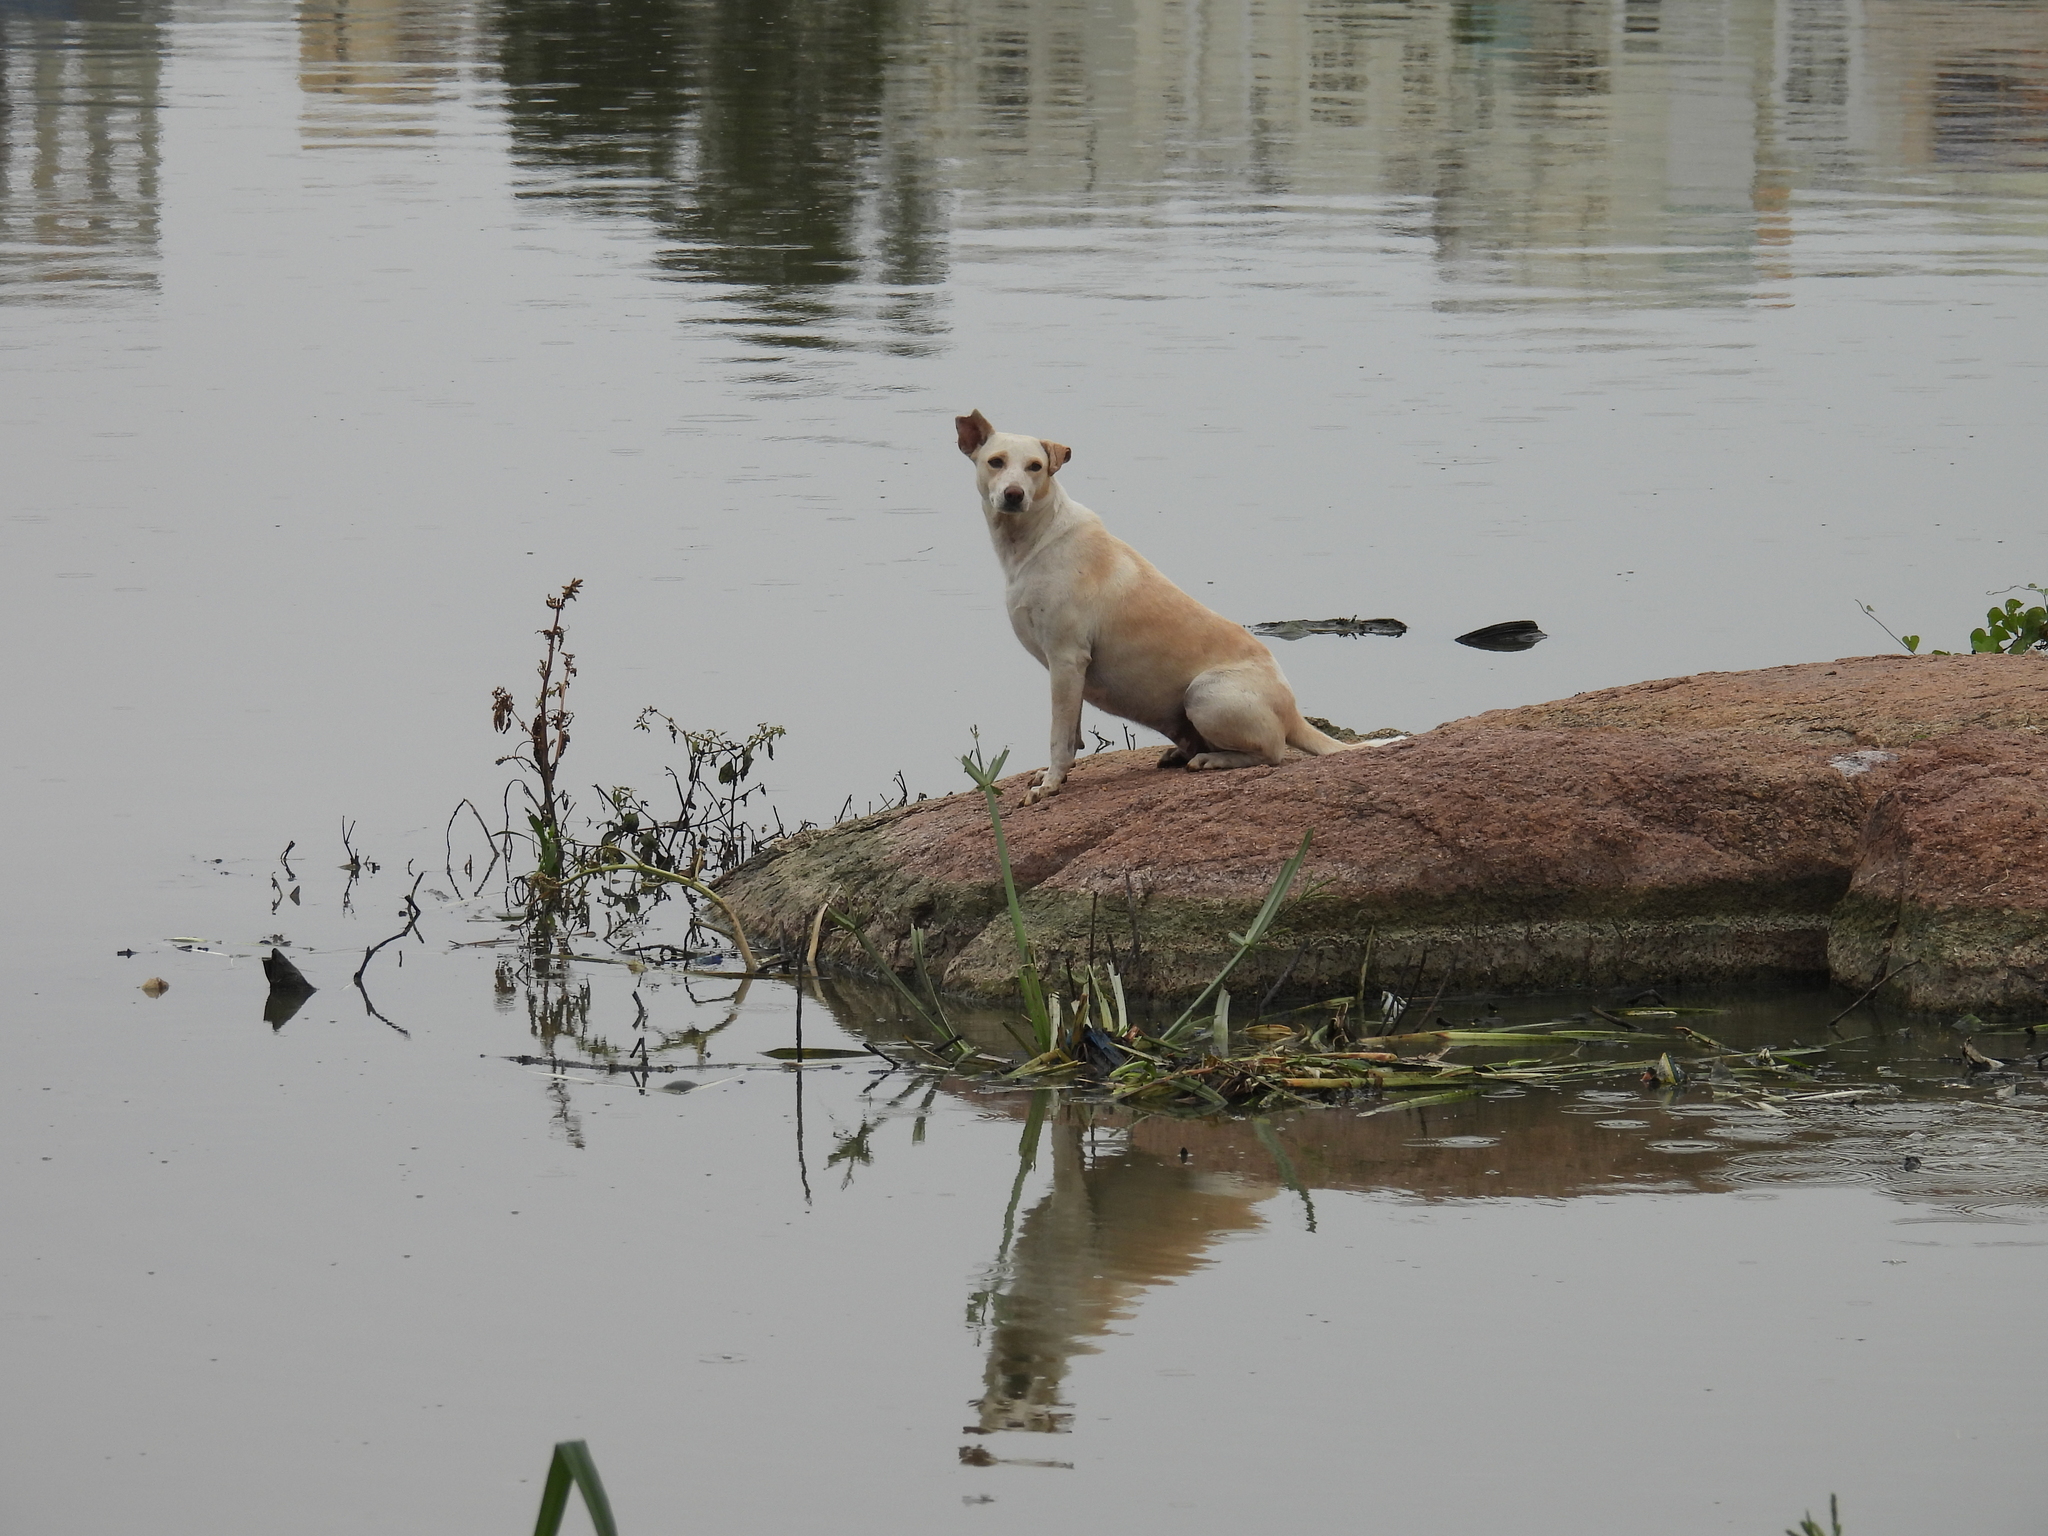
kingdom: Animalia
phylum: Chordata
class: Mammalia
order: Carnivora
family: Canidae
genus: Canis
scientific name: Canis lupus
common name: Gray wolf
